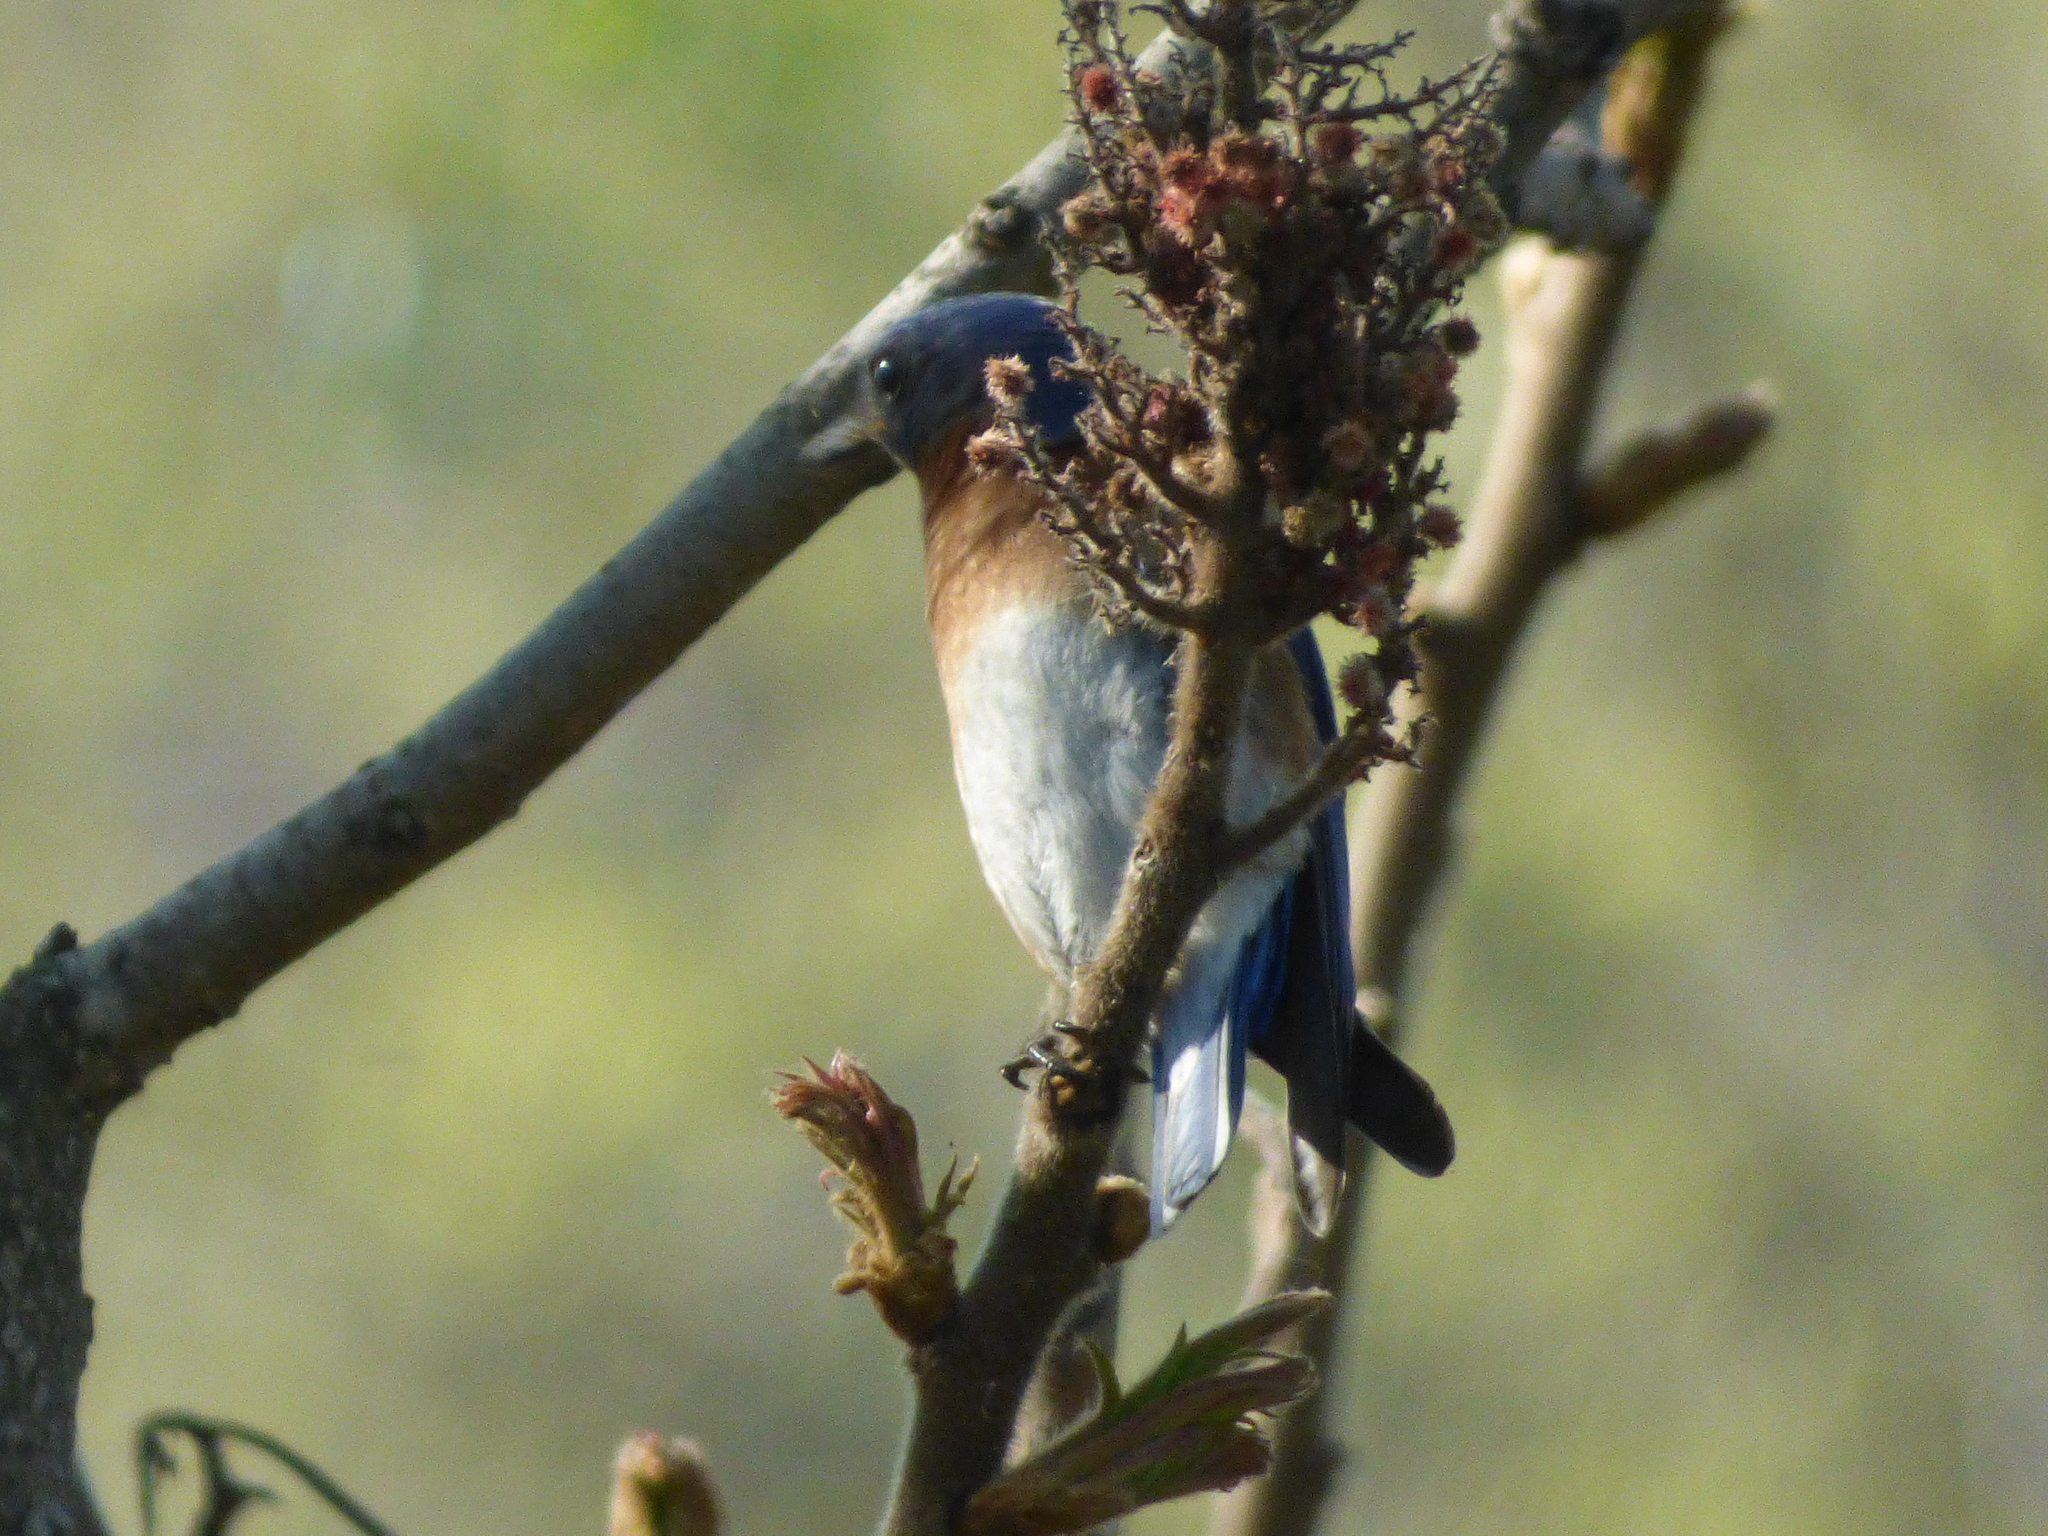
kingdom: Animalia
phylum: Chordata
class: Aves
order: Passeriformes
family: Turdidae
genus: Sialia
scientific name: Sialia sialis
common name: Eastern bluebird
